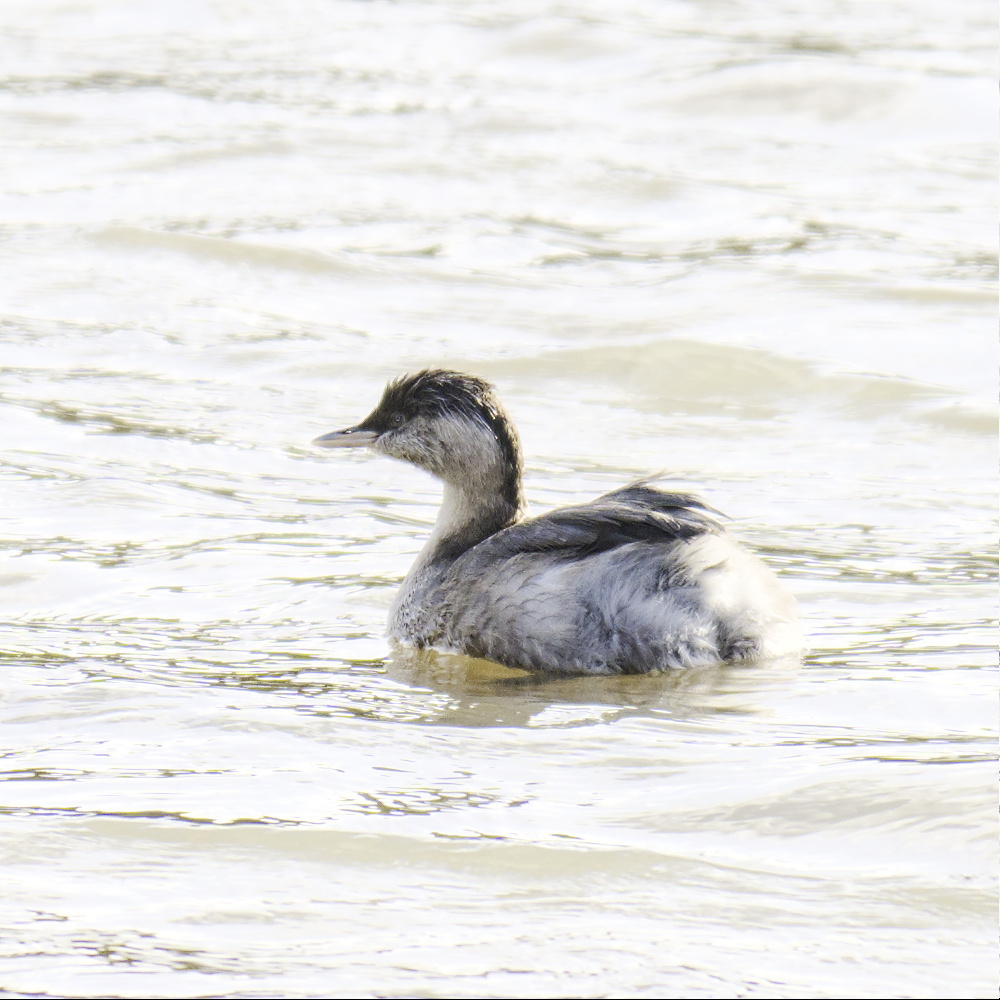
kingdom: Animalia
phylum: Chordata
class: Aves
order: Podicipediformes
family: Podicipedidae
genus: Poliocephalus
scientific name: Poliocephalus poliocephalus
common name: Hoary-headed grebe
